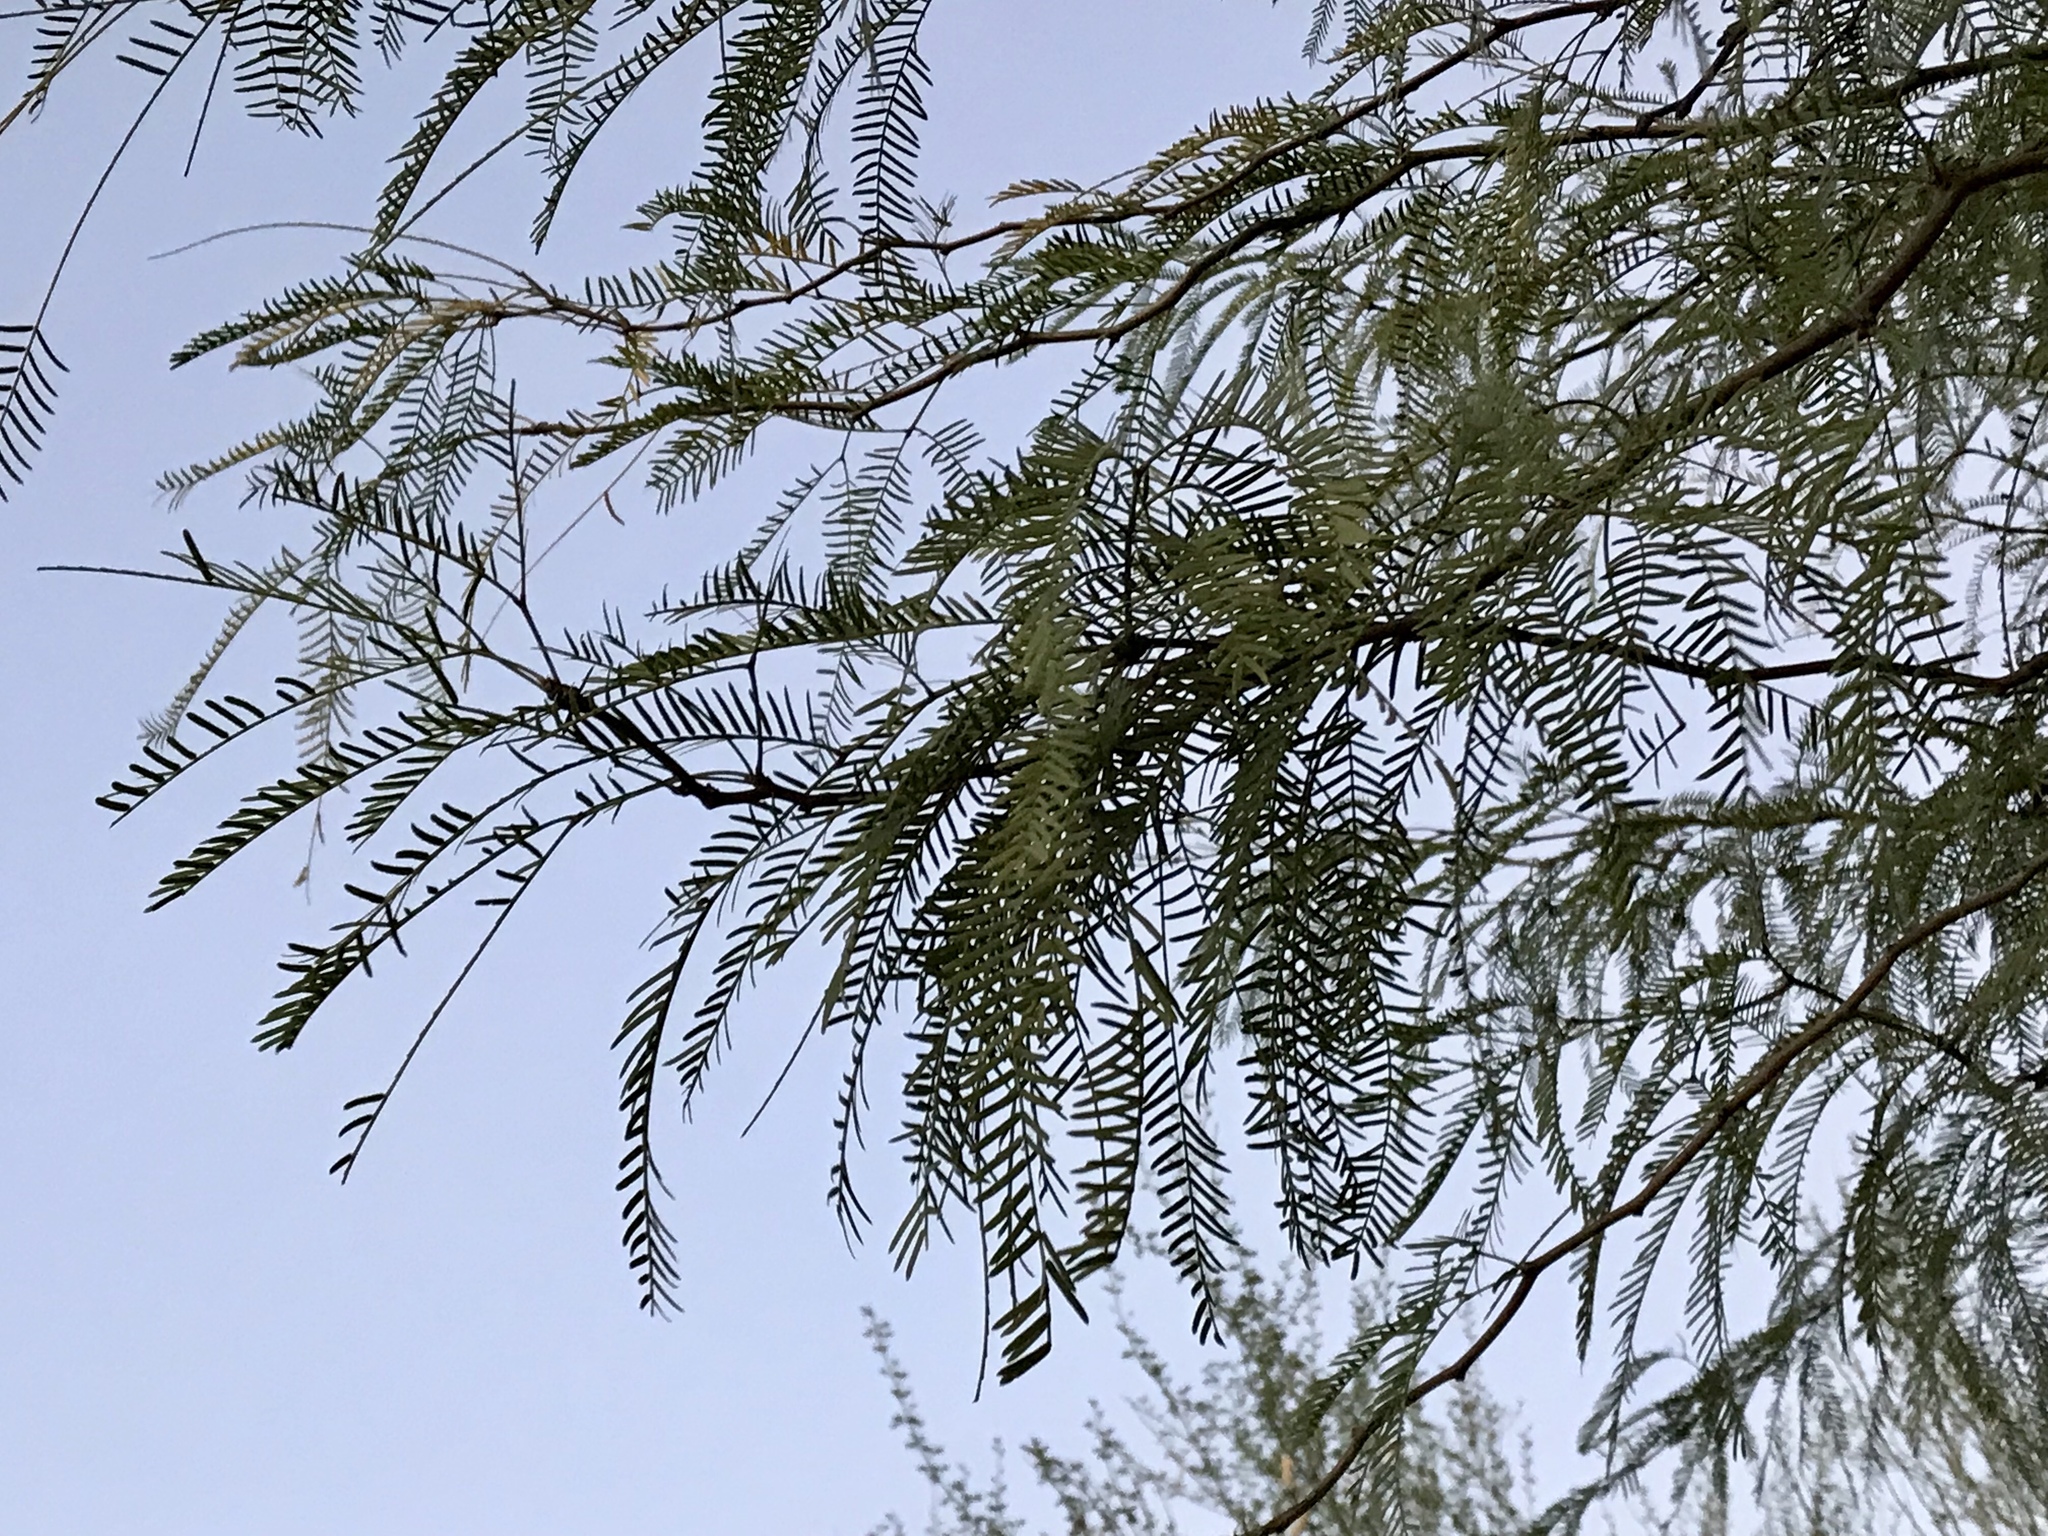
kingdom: Plantae
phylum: Tracheophyta
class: Magnoliopsida
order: Fabales
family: Fabaceae
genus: Prosopis
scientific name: Prosopis glandulosa
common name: Honey mesquite
